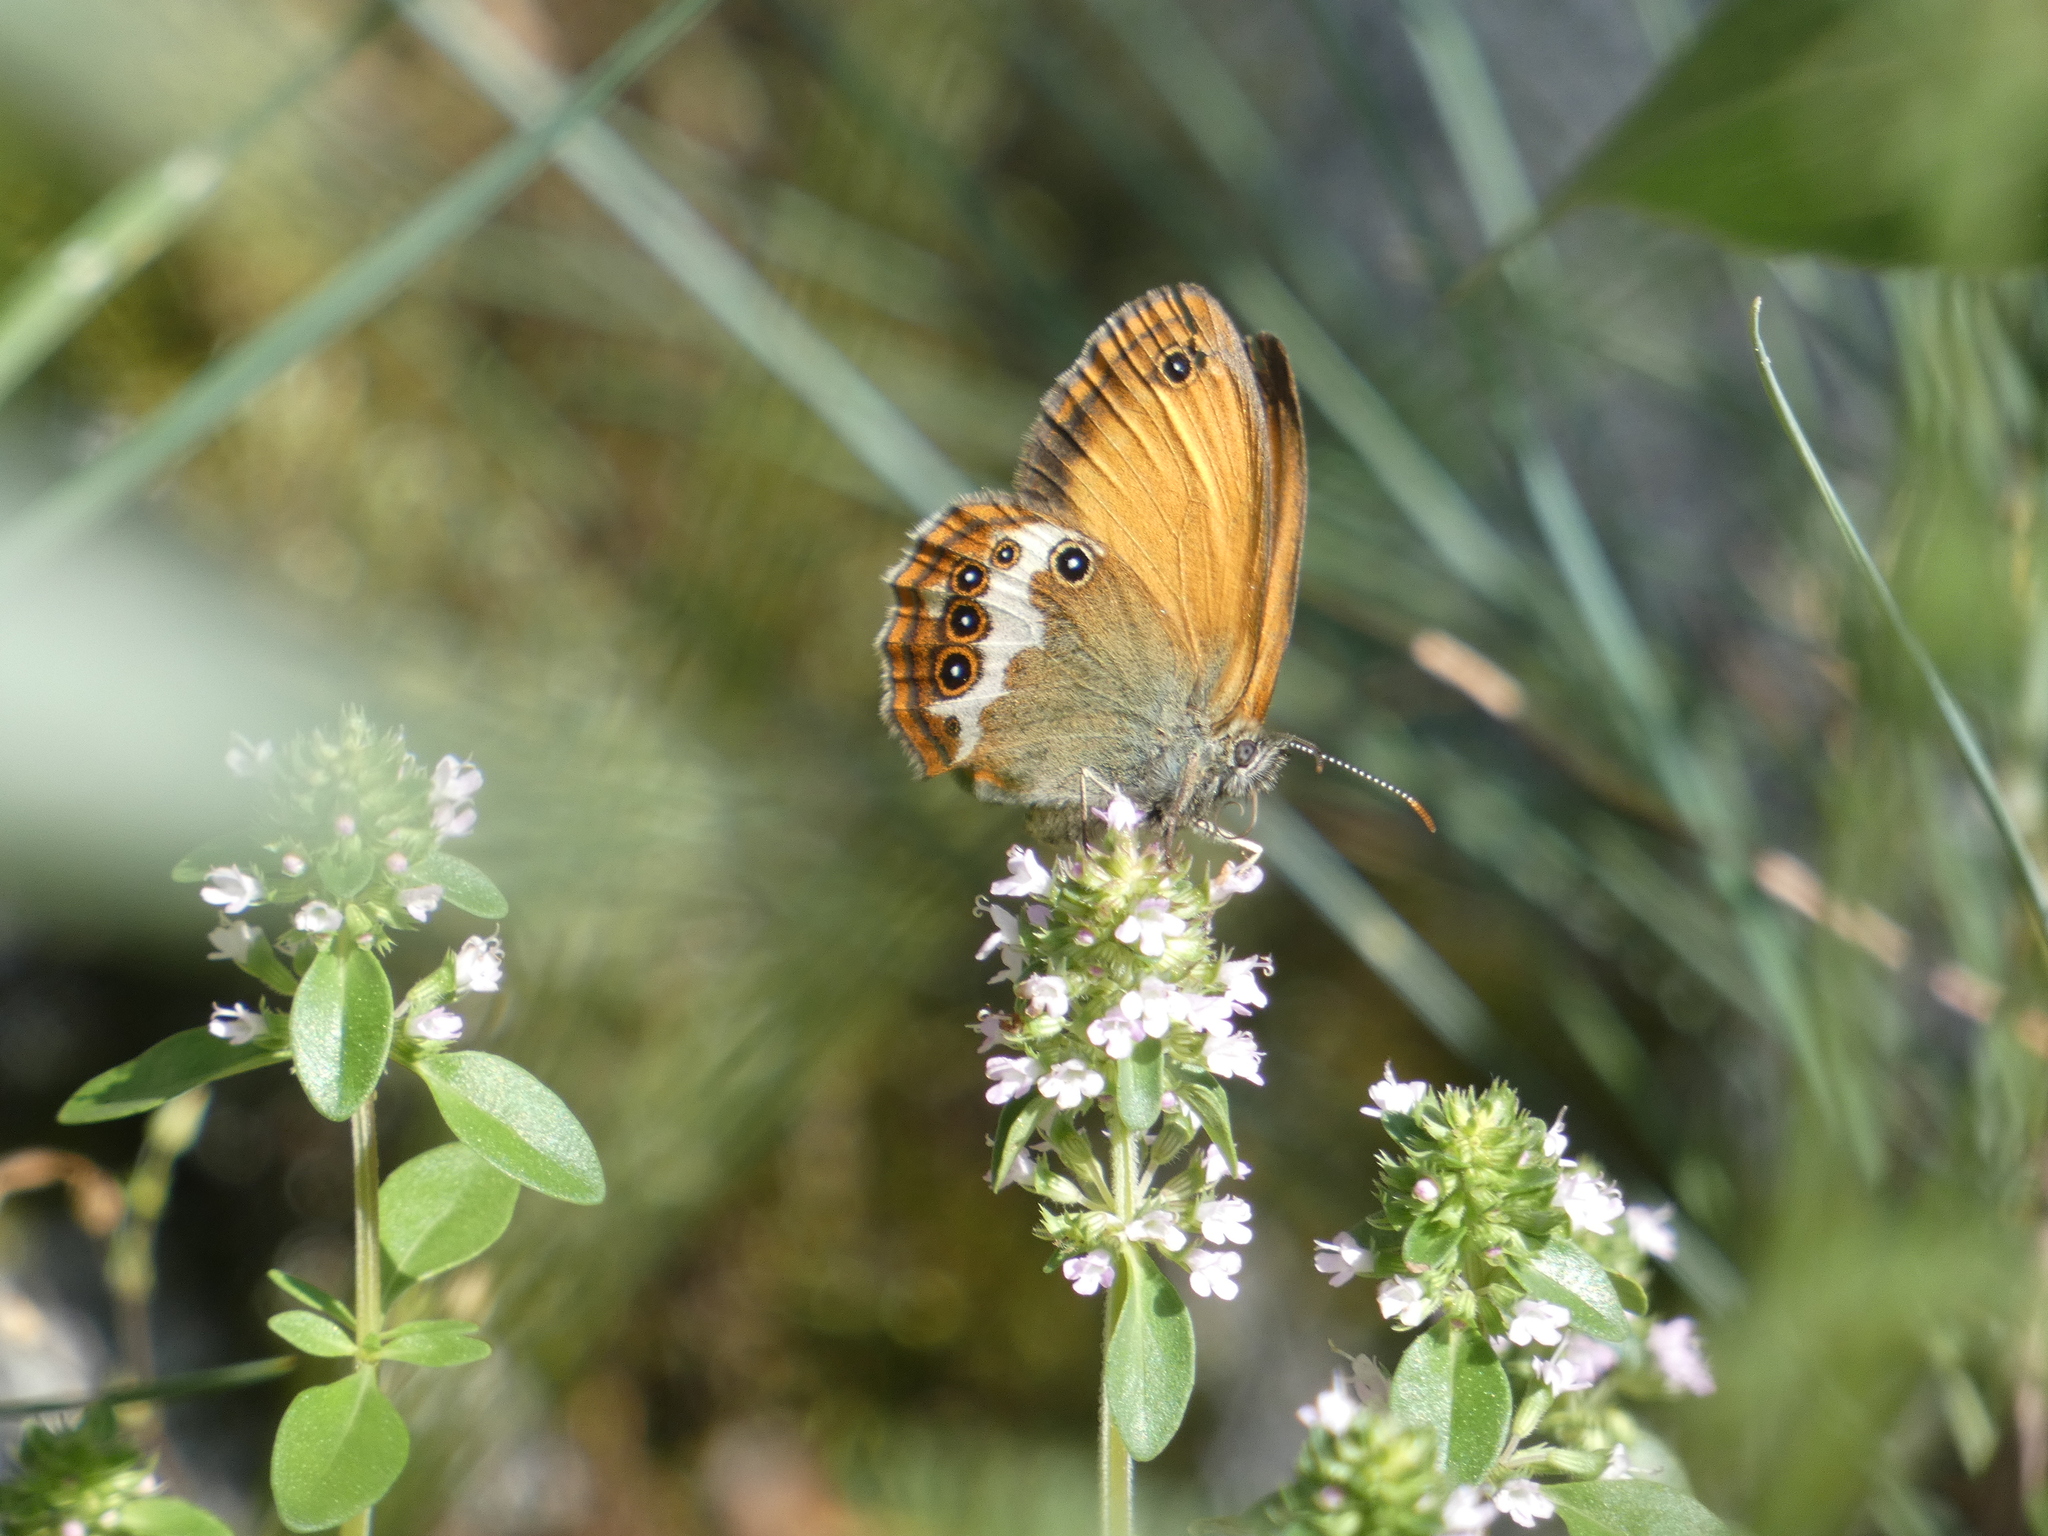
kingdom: Animalia
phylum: Arthropoda
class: Insecta
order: Lepidoptera
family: Nymphalidae
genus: Coenonympha
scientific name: Coenonympha arcania
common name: Pearly heath
